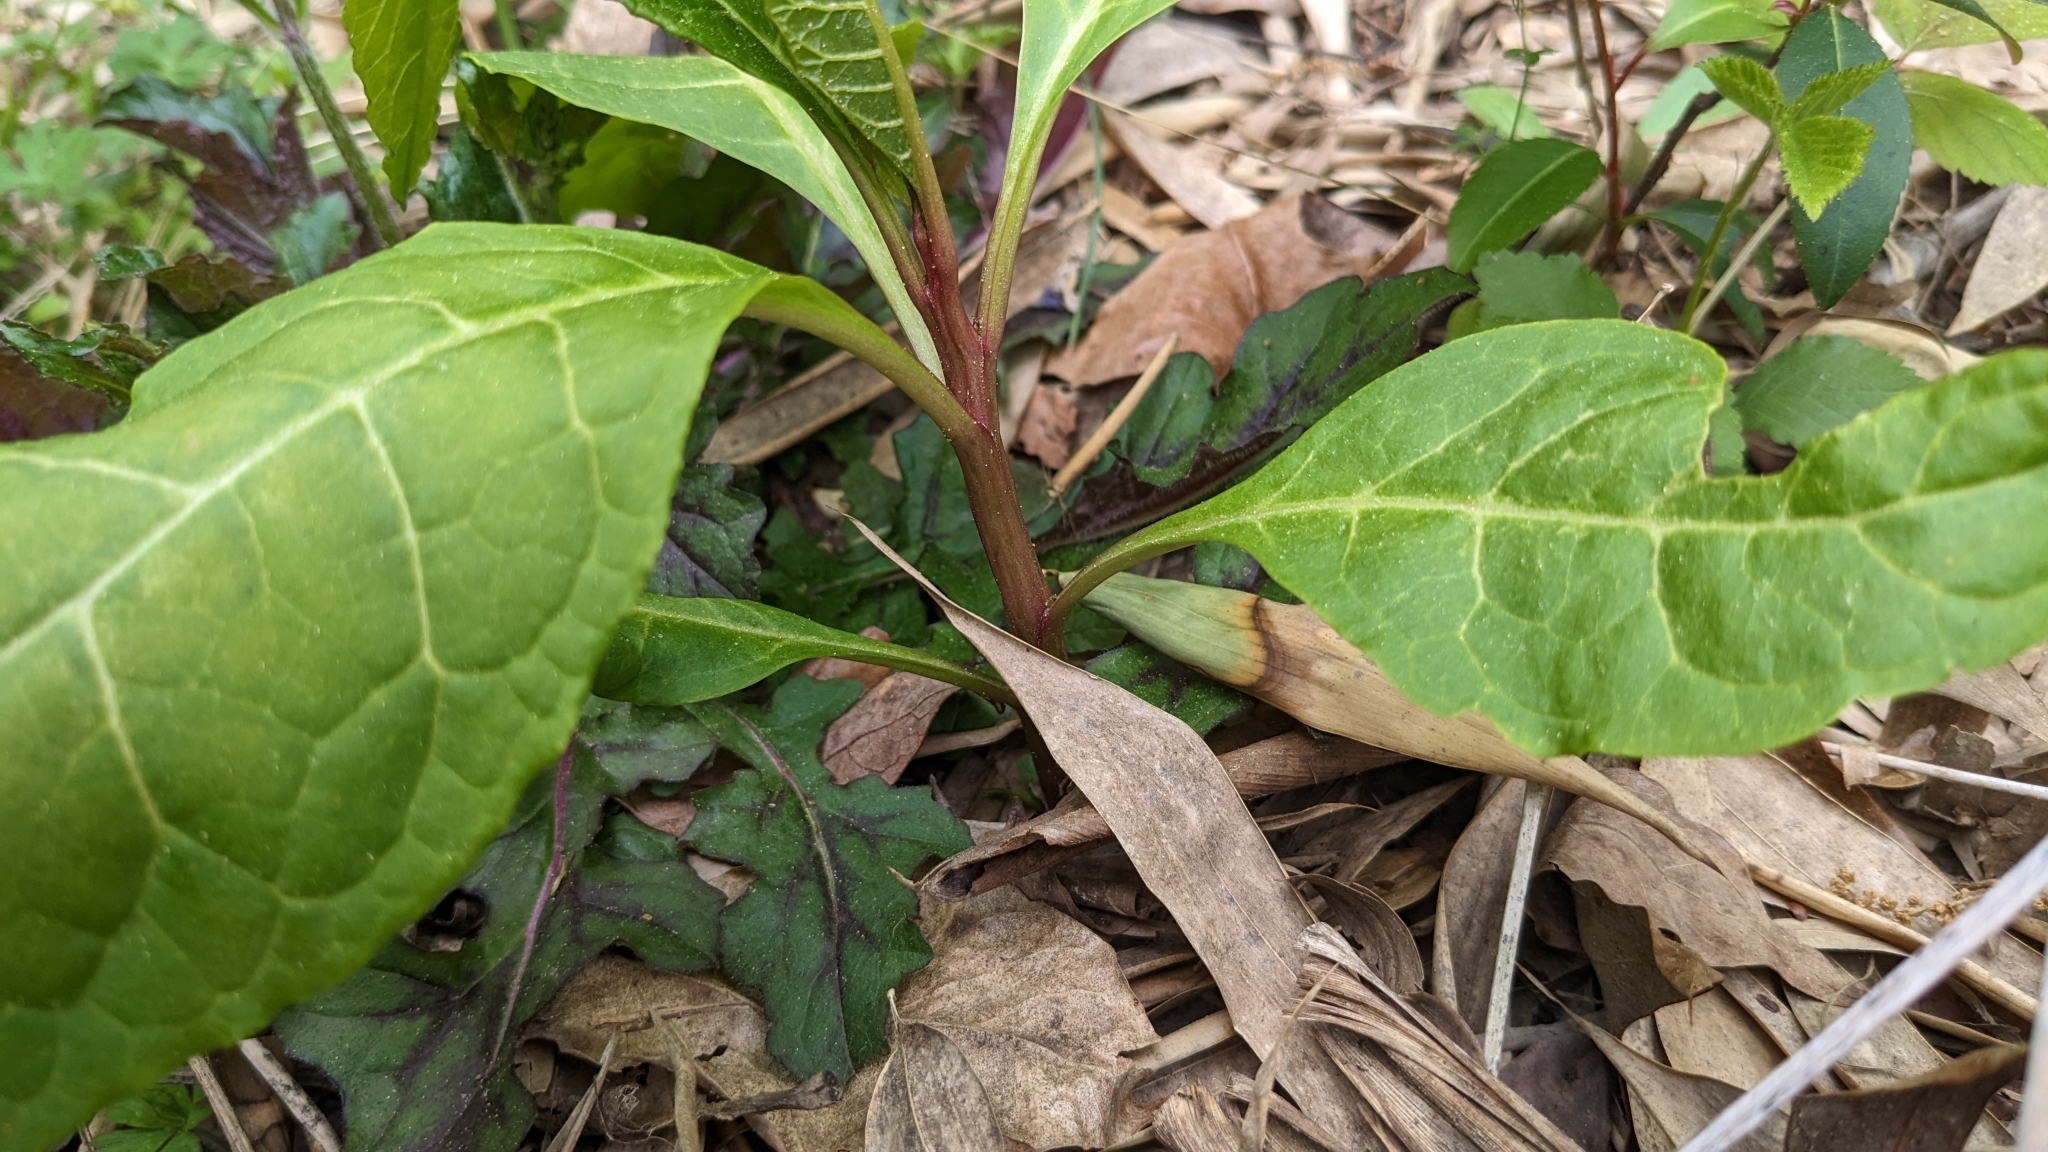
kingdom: Plantae
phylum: Tracheophyta
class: Magnoliopsida
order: Caryophyllales
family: Phytolaccaceae
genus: Phytolacca
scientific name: Phytolacca americana
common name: American pokeweed
